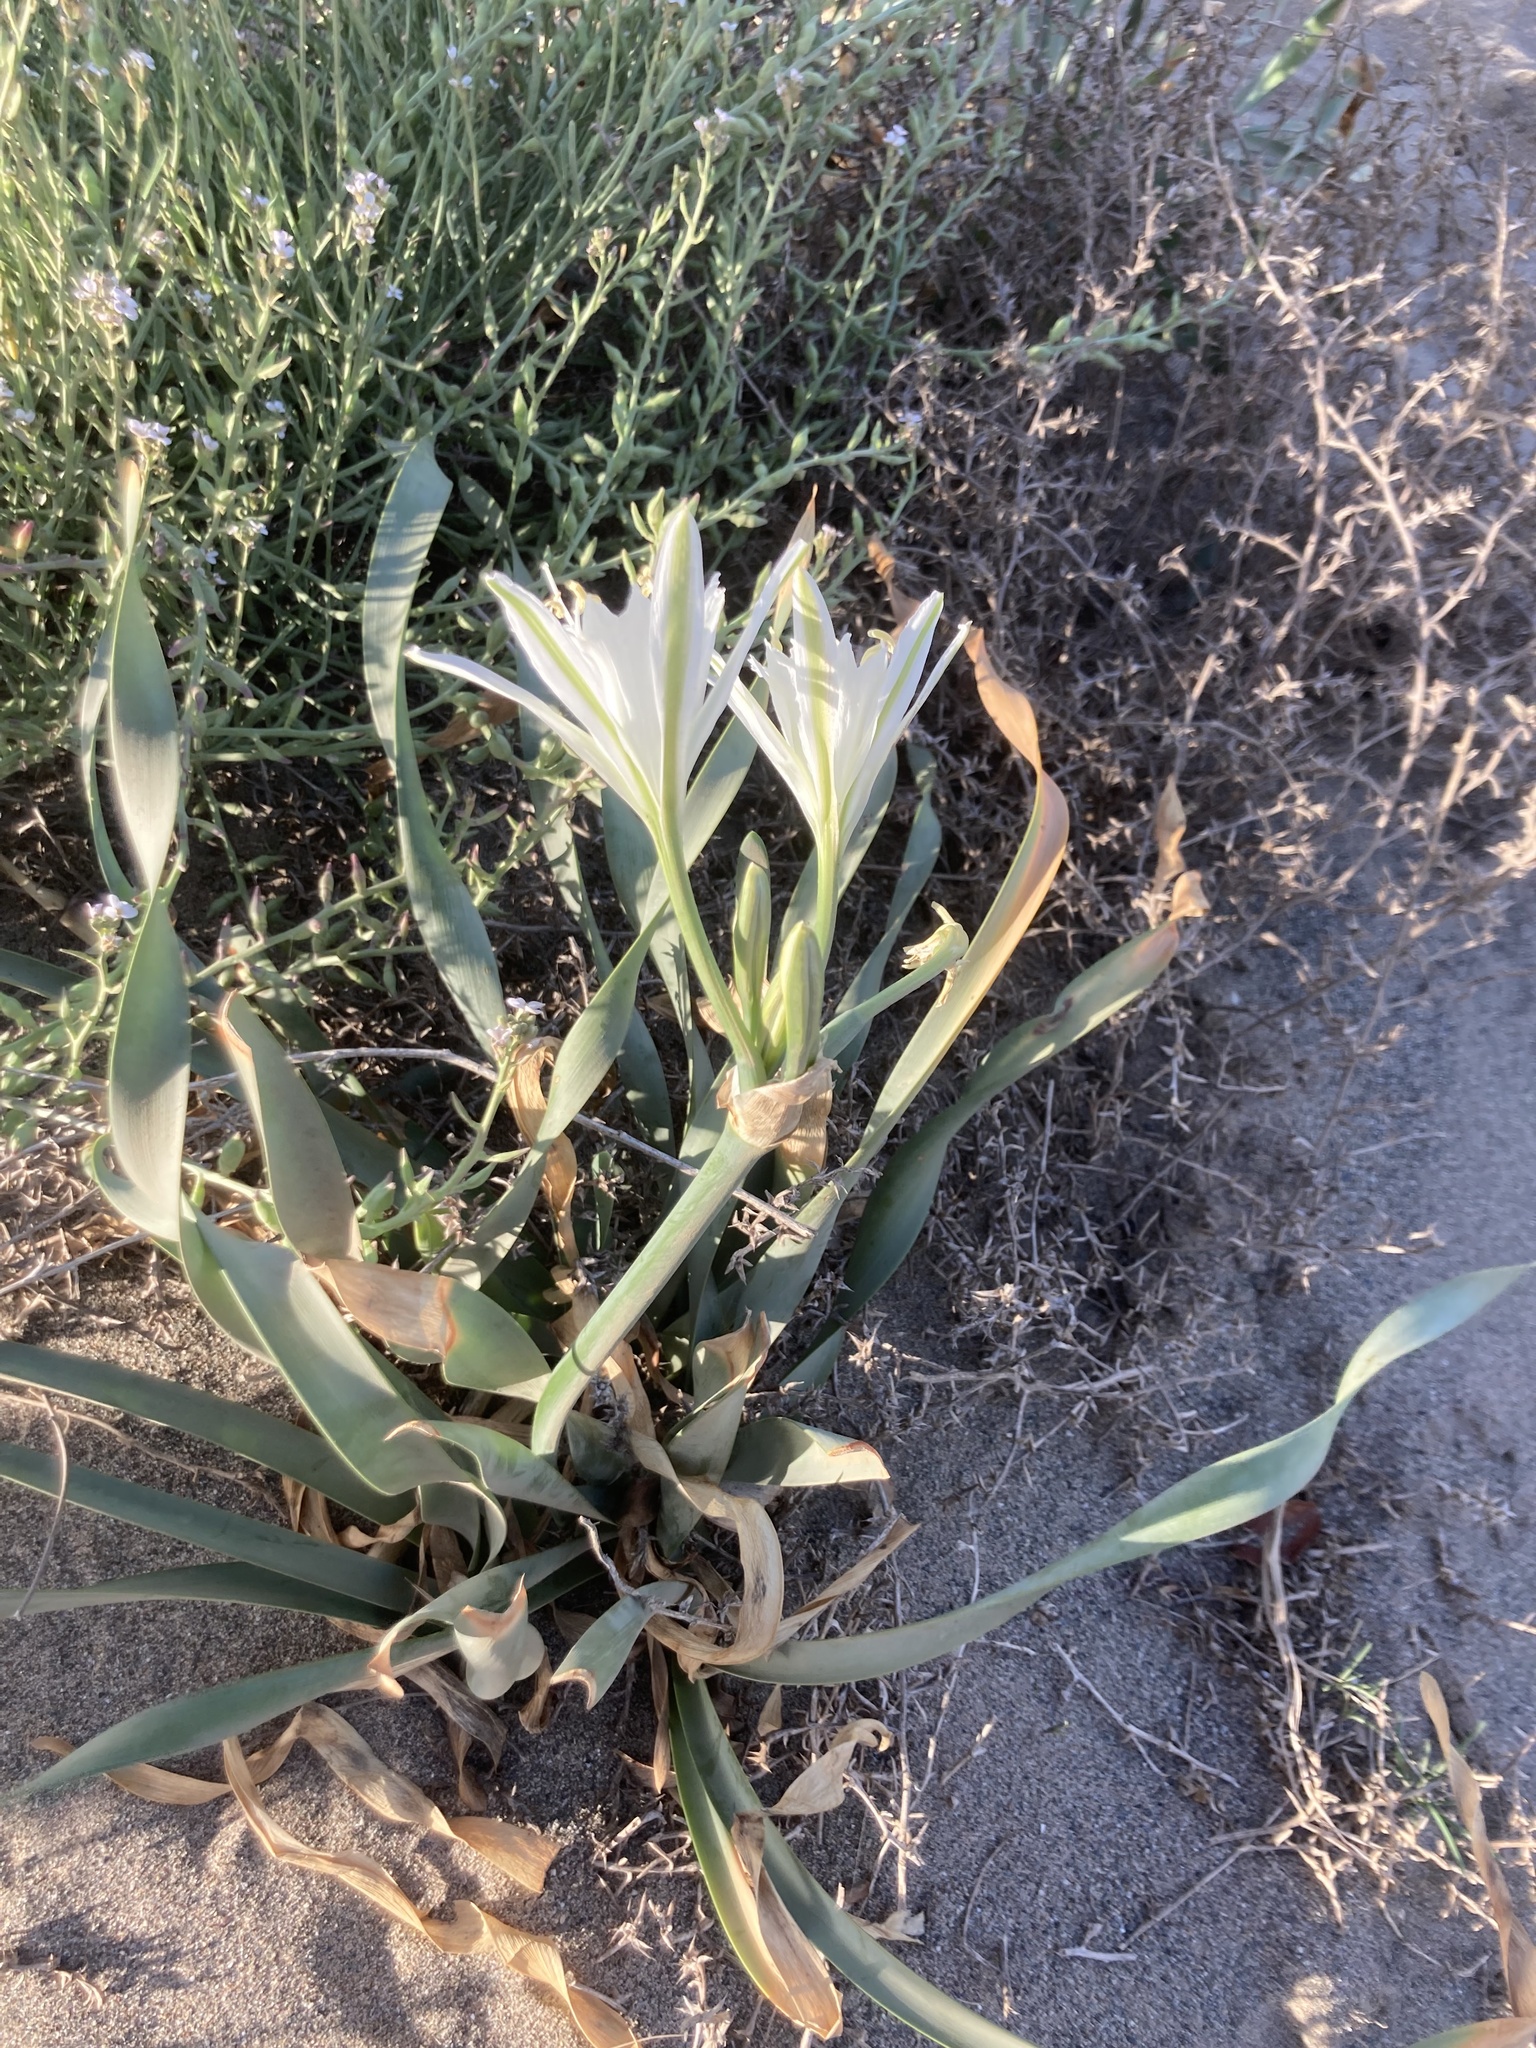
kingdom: Plantae
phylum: Tracheophyta
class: Liliopsida
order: Asparagales
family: Amaryllidaceae
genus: Pancratium
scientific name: Pancratium maritimum
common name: Sea-daffodil
